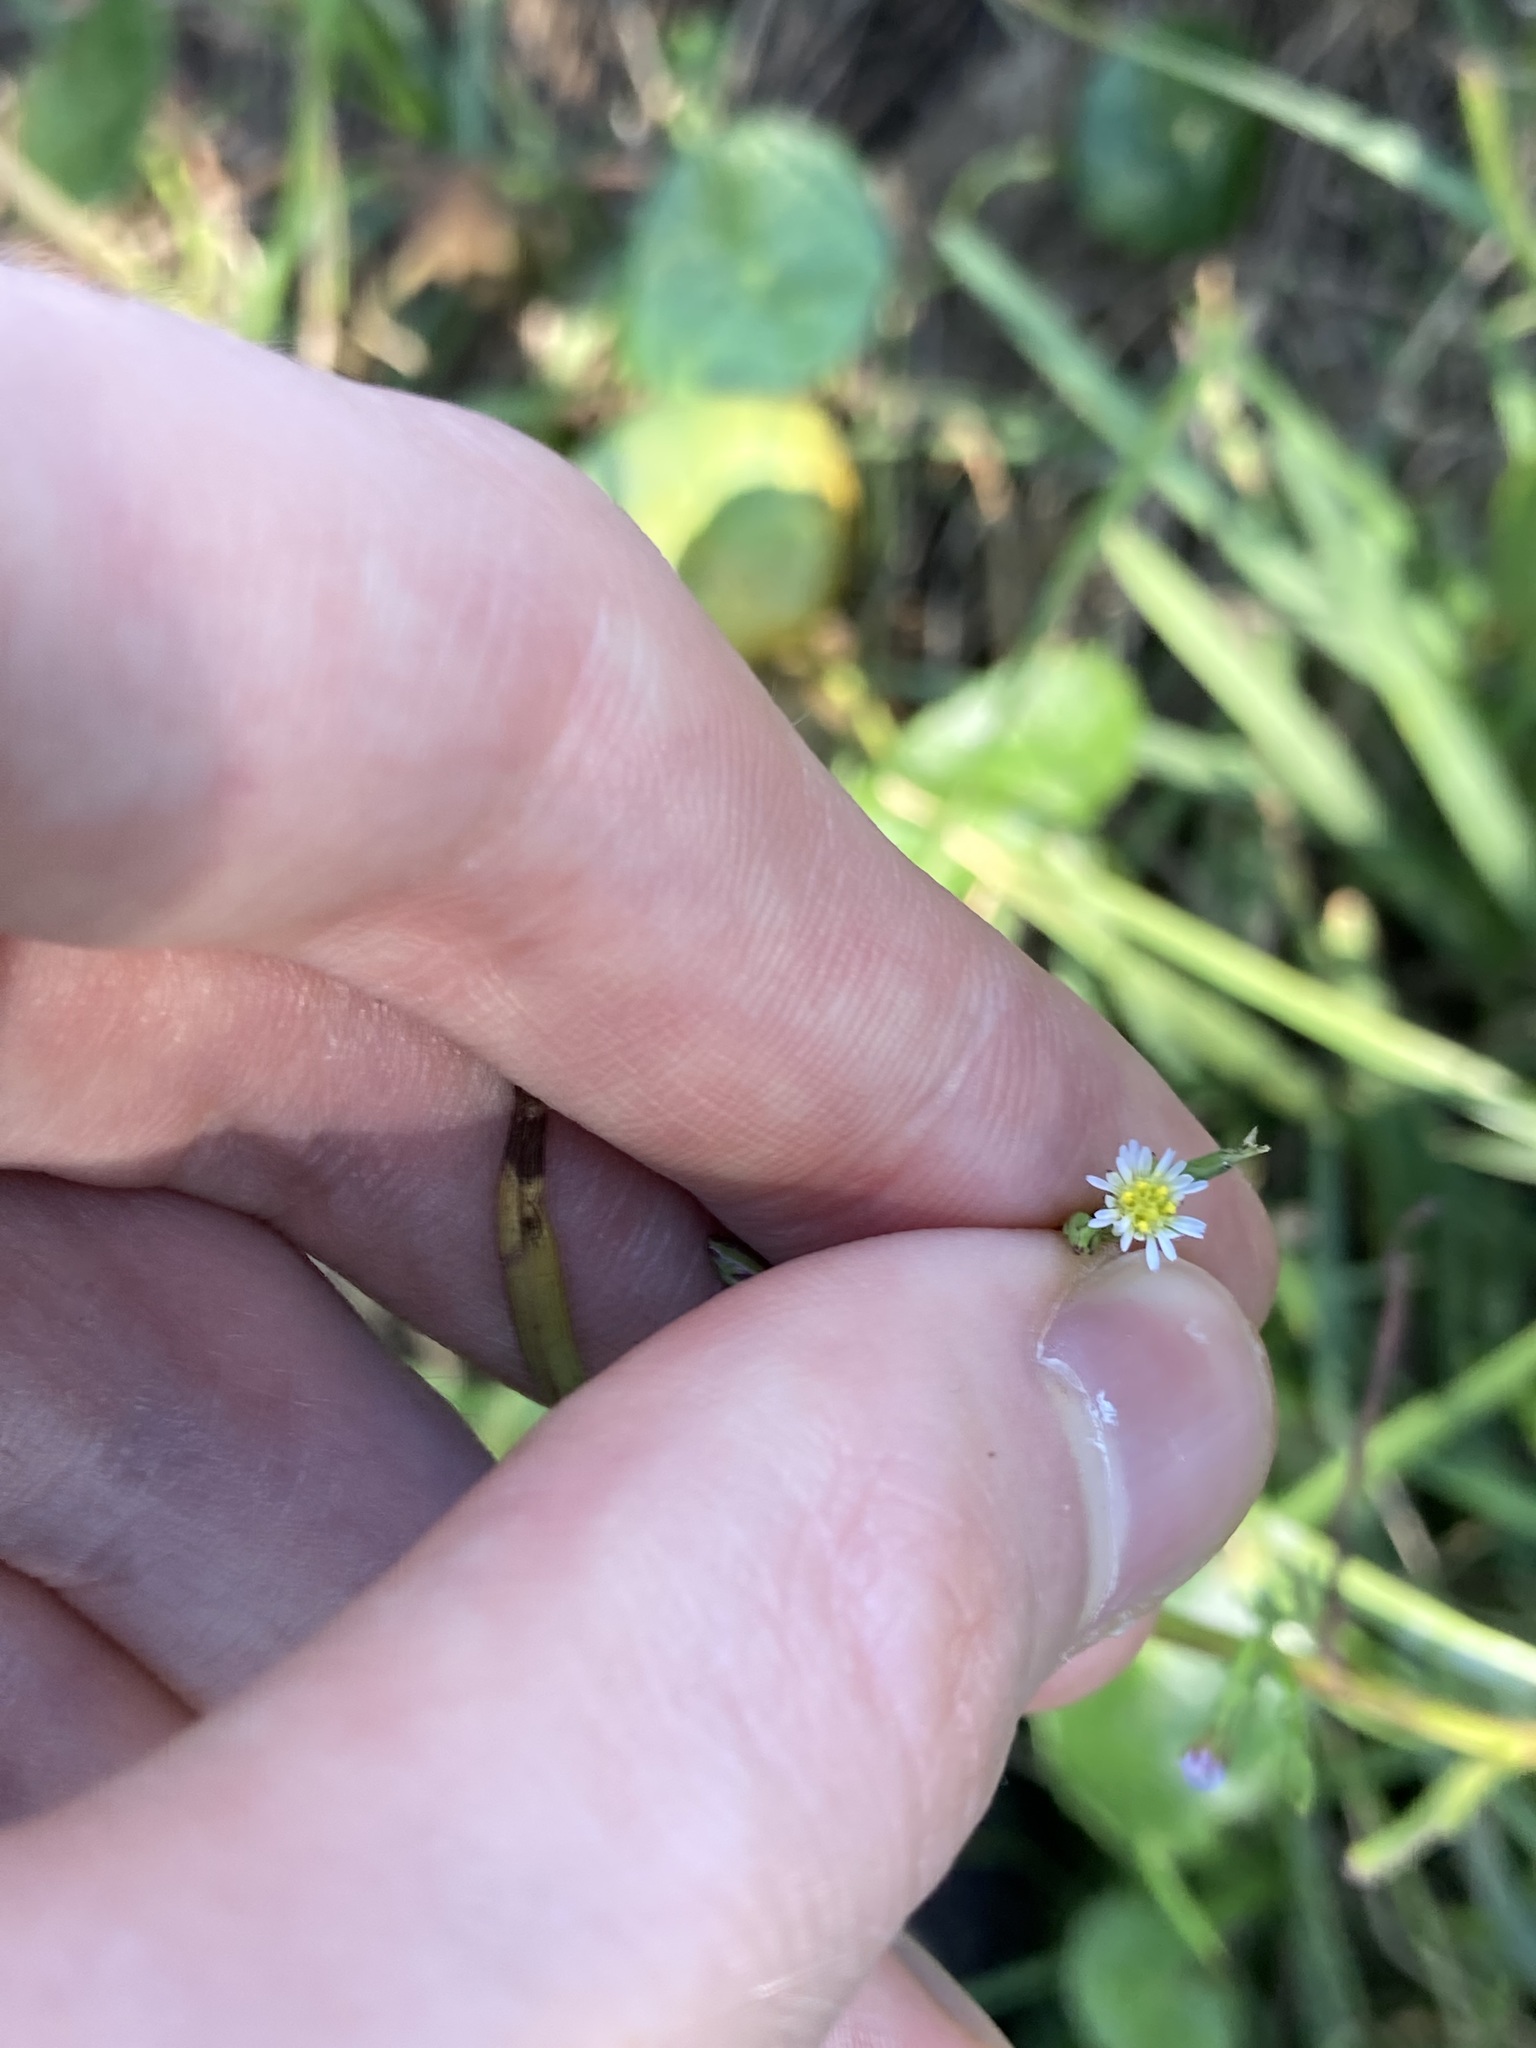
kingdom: Plantae
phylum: Tracheophyta
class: Magnoliopsida
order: Asterales
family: Asteraceae
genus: Symphyotrichum
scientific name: Symphyotrichum subulatum
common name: Annual saltmarsh aster
